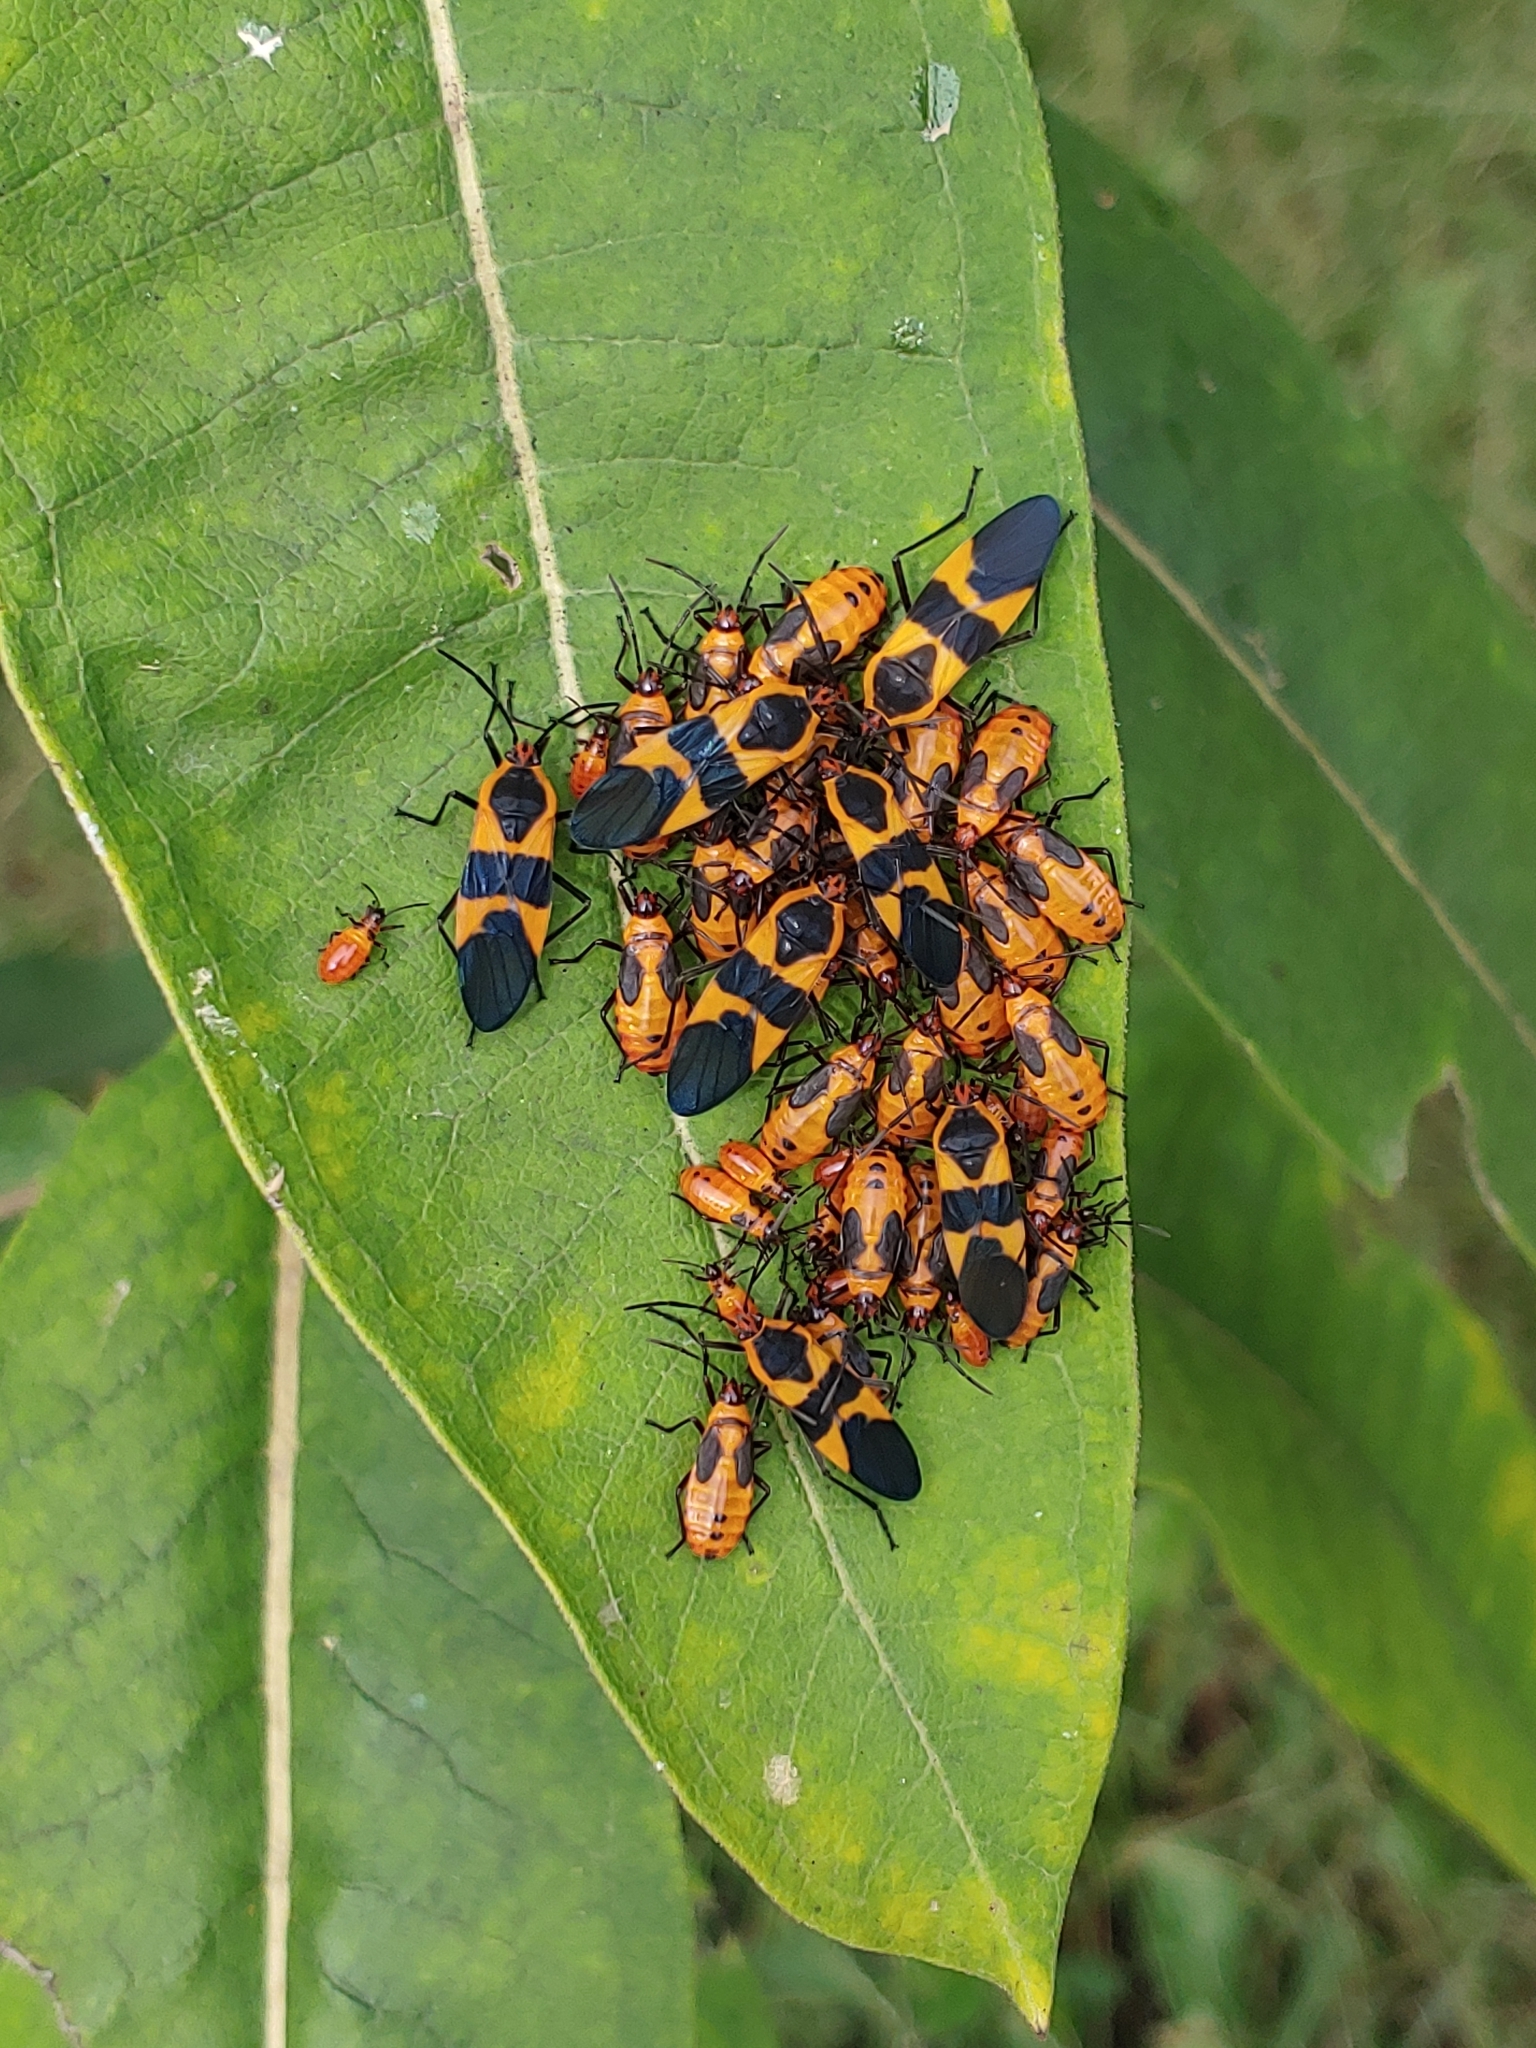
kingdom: Animalia
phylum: Arthropoda
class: Insecta
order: Hemiptera
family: Lygaeidae
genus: Oncopeltus
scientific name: Oncopeltus fasciatus
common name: Large milkweed bug
